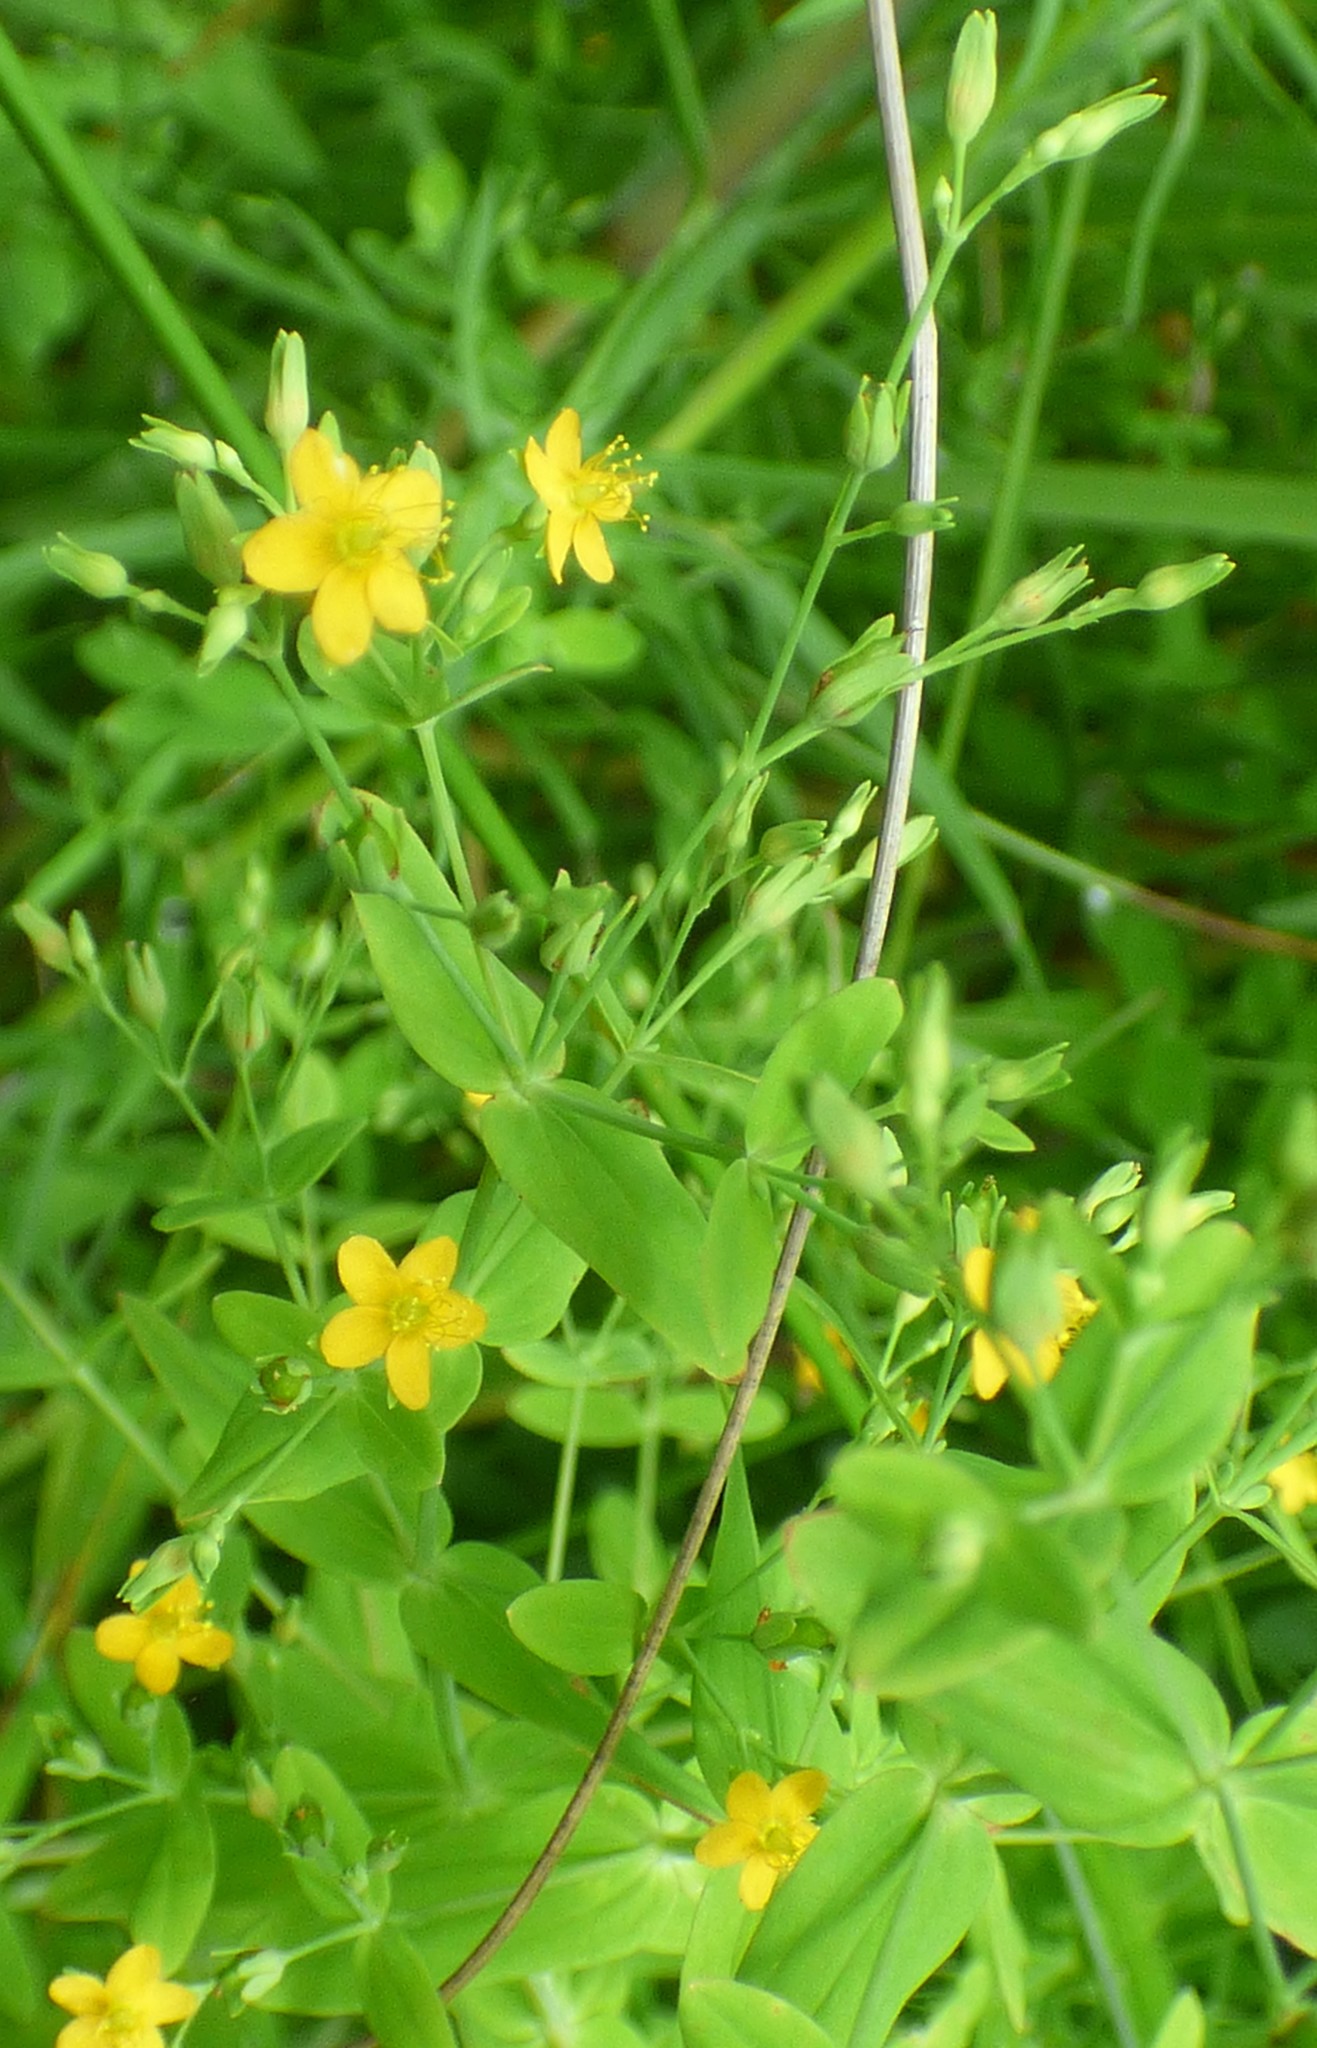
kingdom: Plantae
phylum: Tracheophyta
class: Magnoliopsida
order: Malpighiales
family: Hypericaceae
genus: Hypericum
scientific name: Hypericum mutilum
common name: Dwarf st. john's-wort
